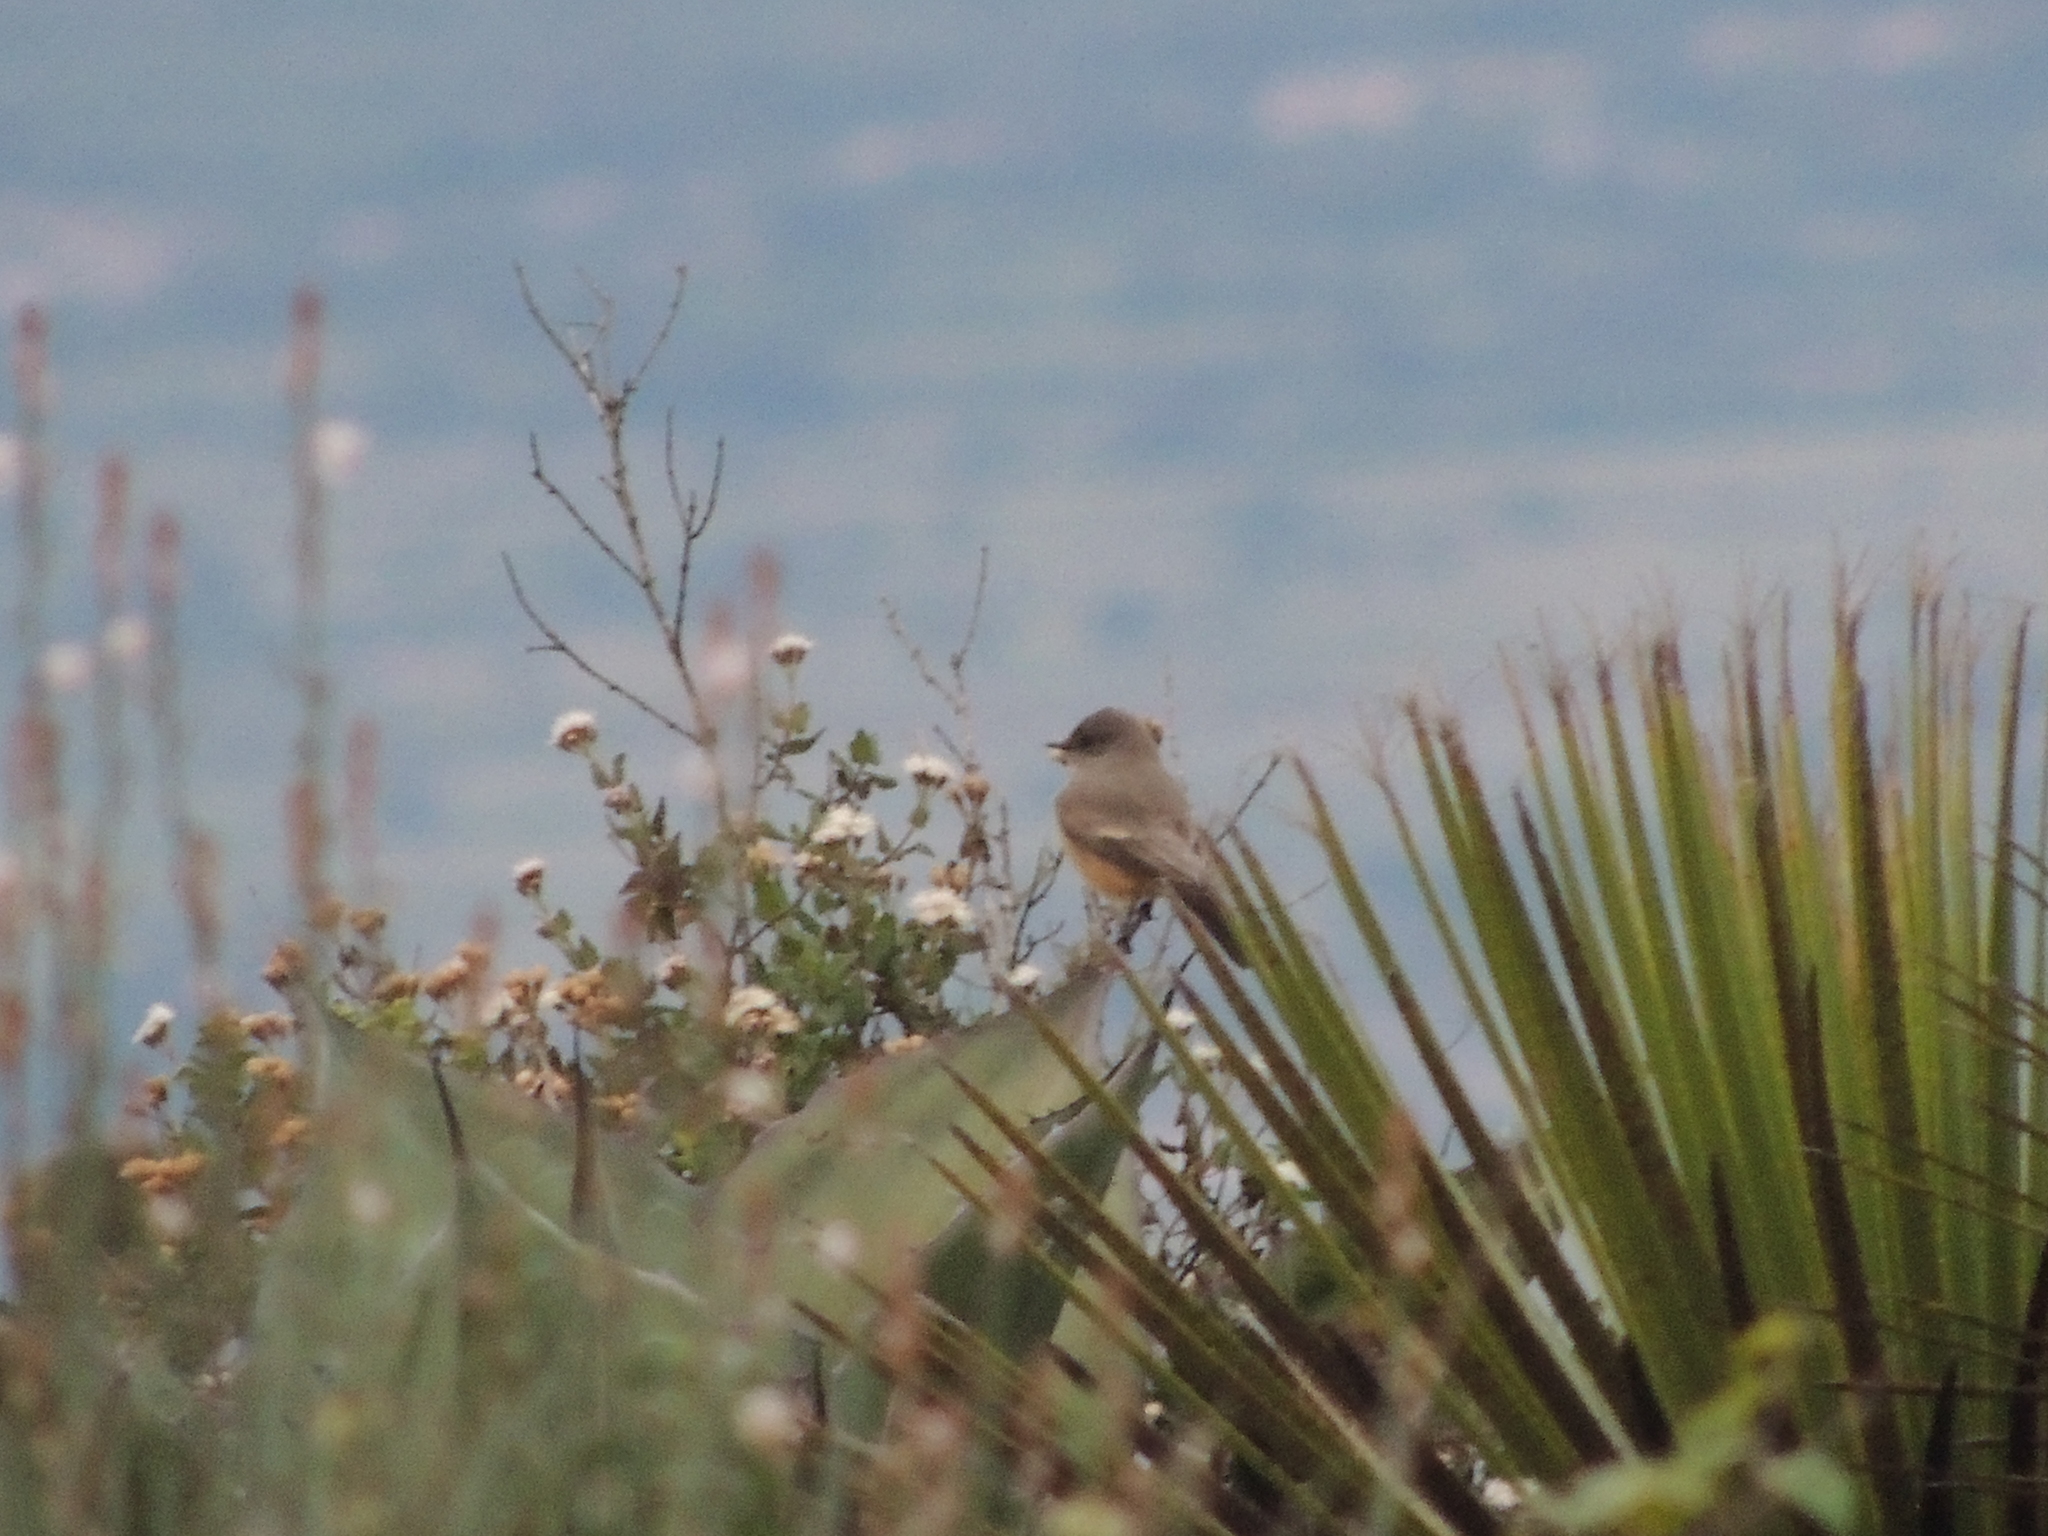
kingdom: Animalia
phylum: Chordata
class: Aves
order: Passeriformes
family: Tyrannidae
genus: Sayornis
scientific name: Sayornis saya
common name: Say's phoebe
